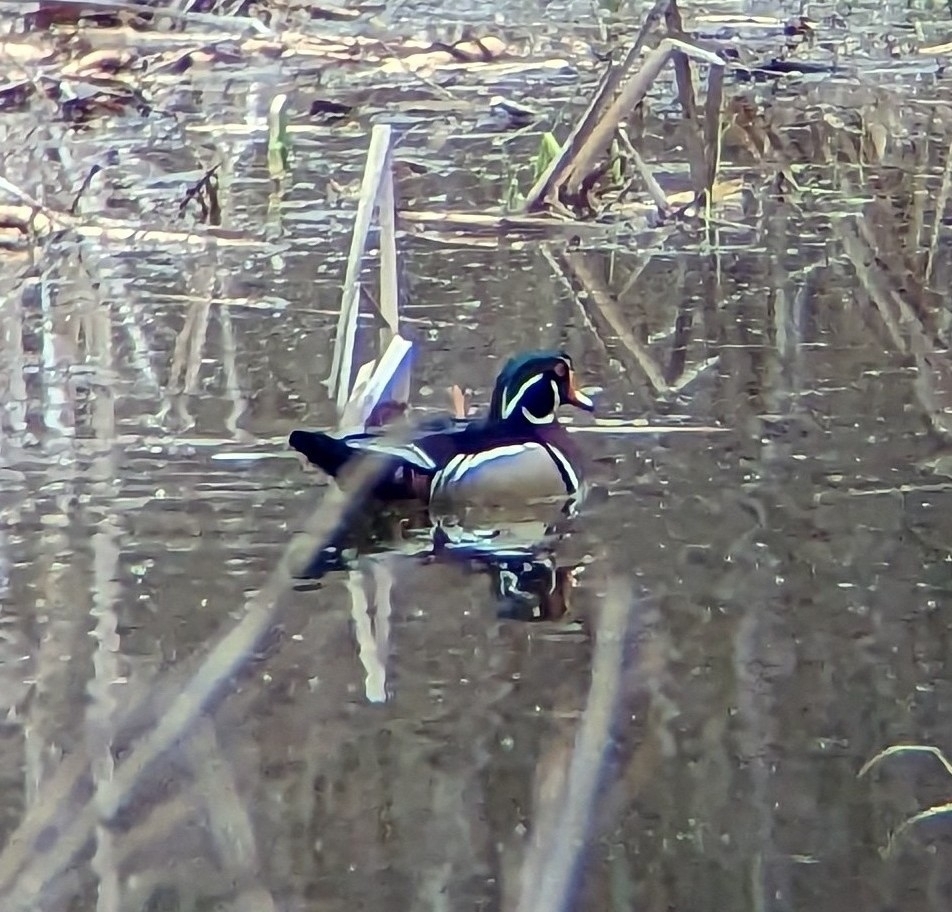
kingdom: Animalia
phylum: Chordata
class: Aves
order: Anseriformes
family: Anatidae
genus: Aix
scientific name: Aix sponsa
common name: Wood duck
